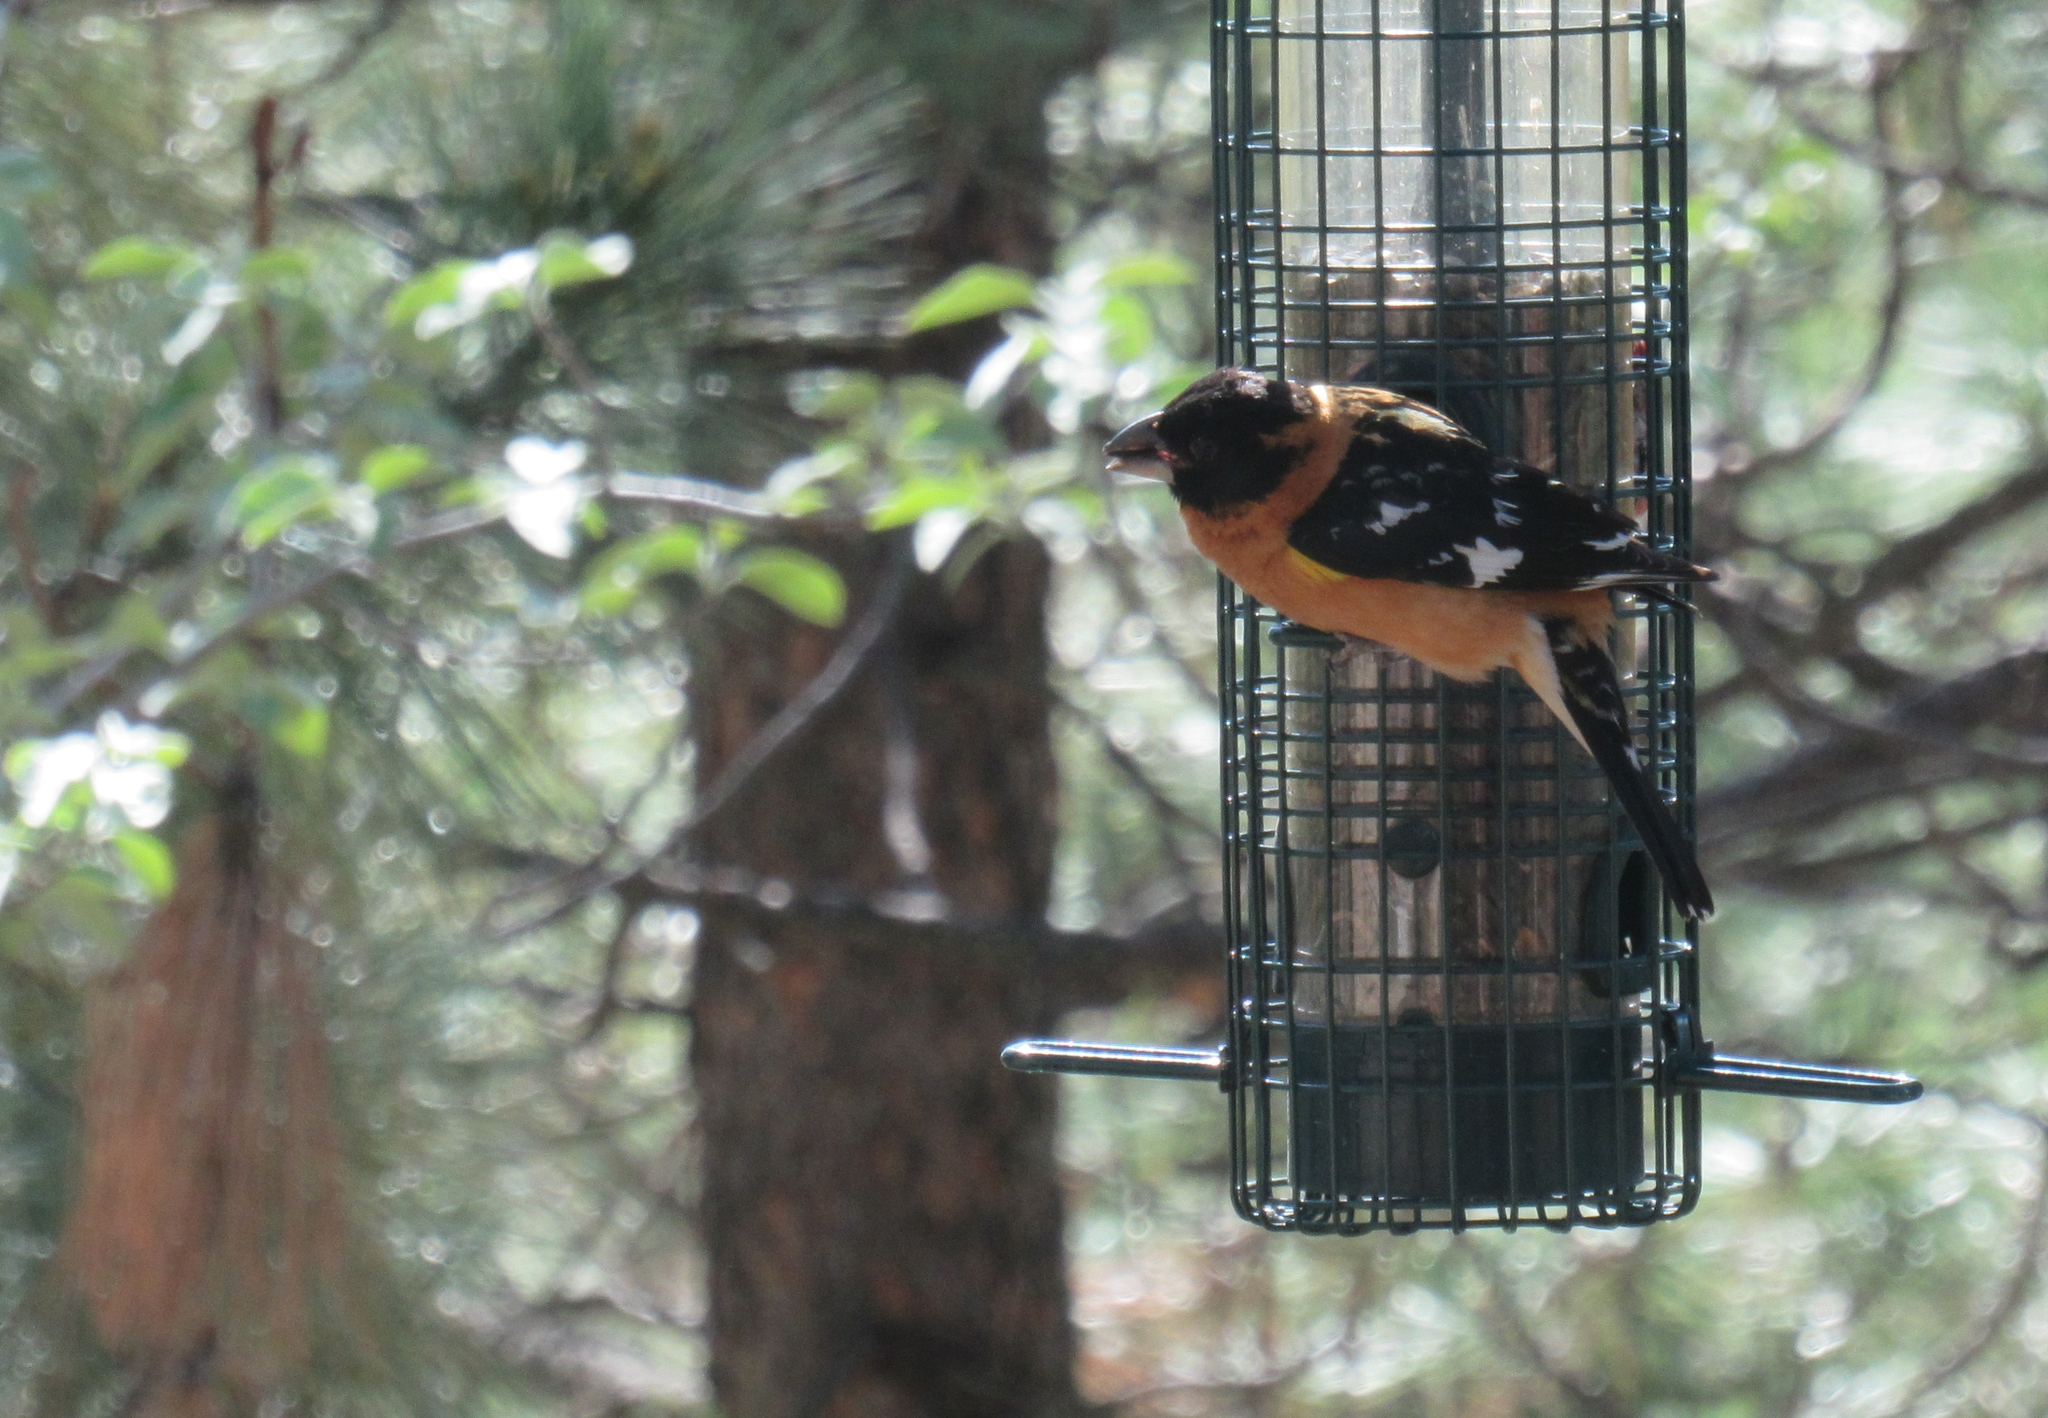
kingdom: Animalia
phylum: Chordata
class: Aves
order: Passeriformes
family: Cardinalidae
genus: Pheucticus
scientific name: Pheucticus melanocephalus
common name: Black-headed grosbeak
